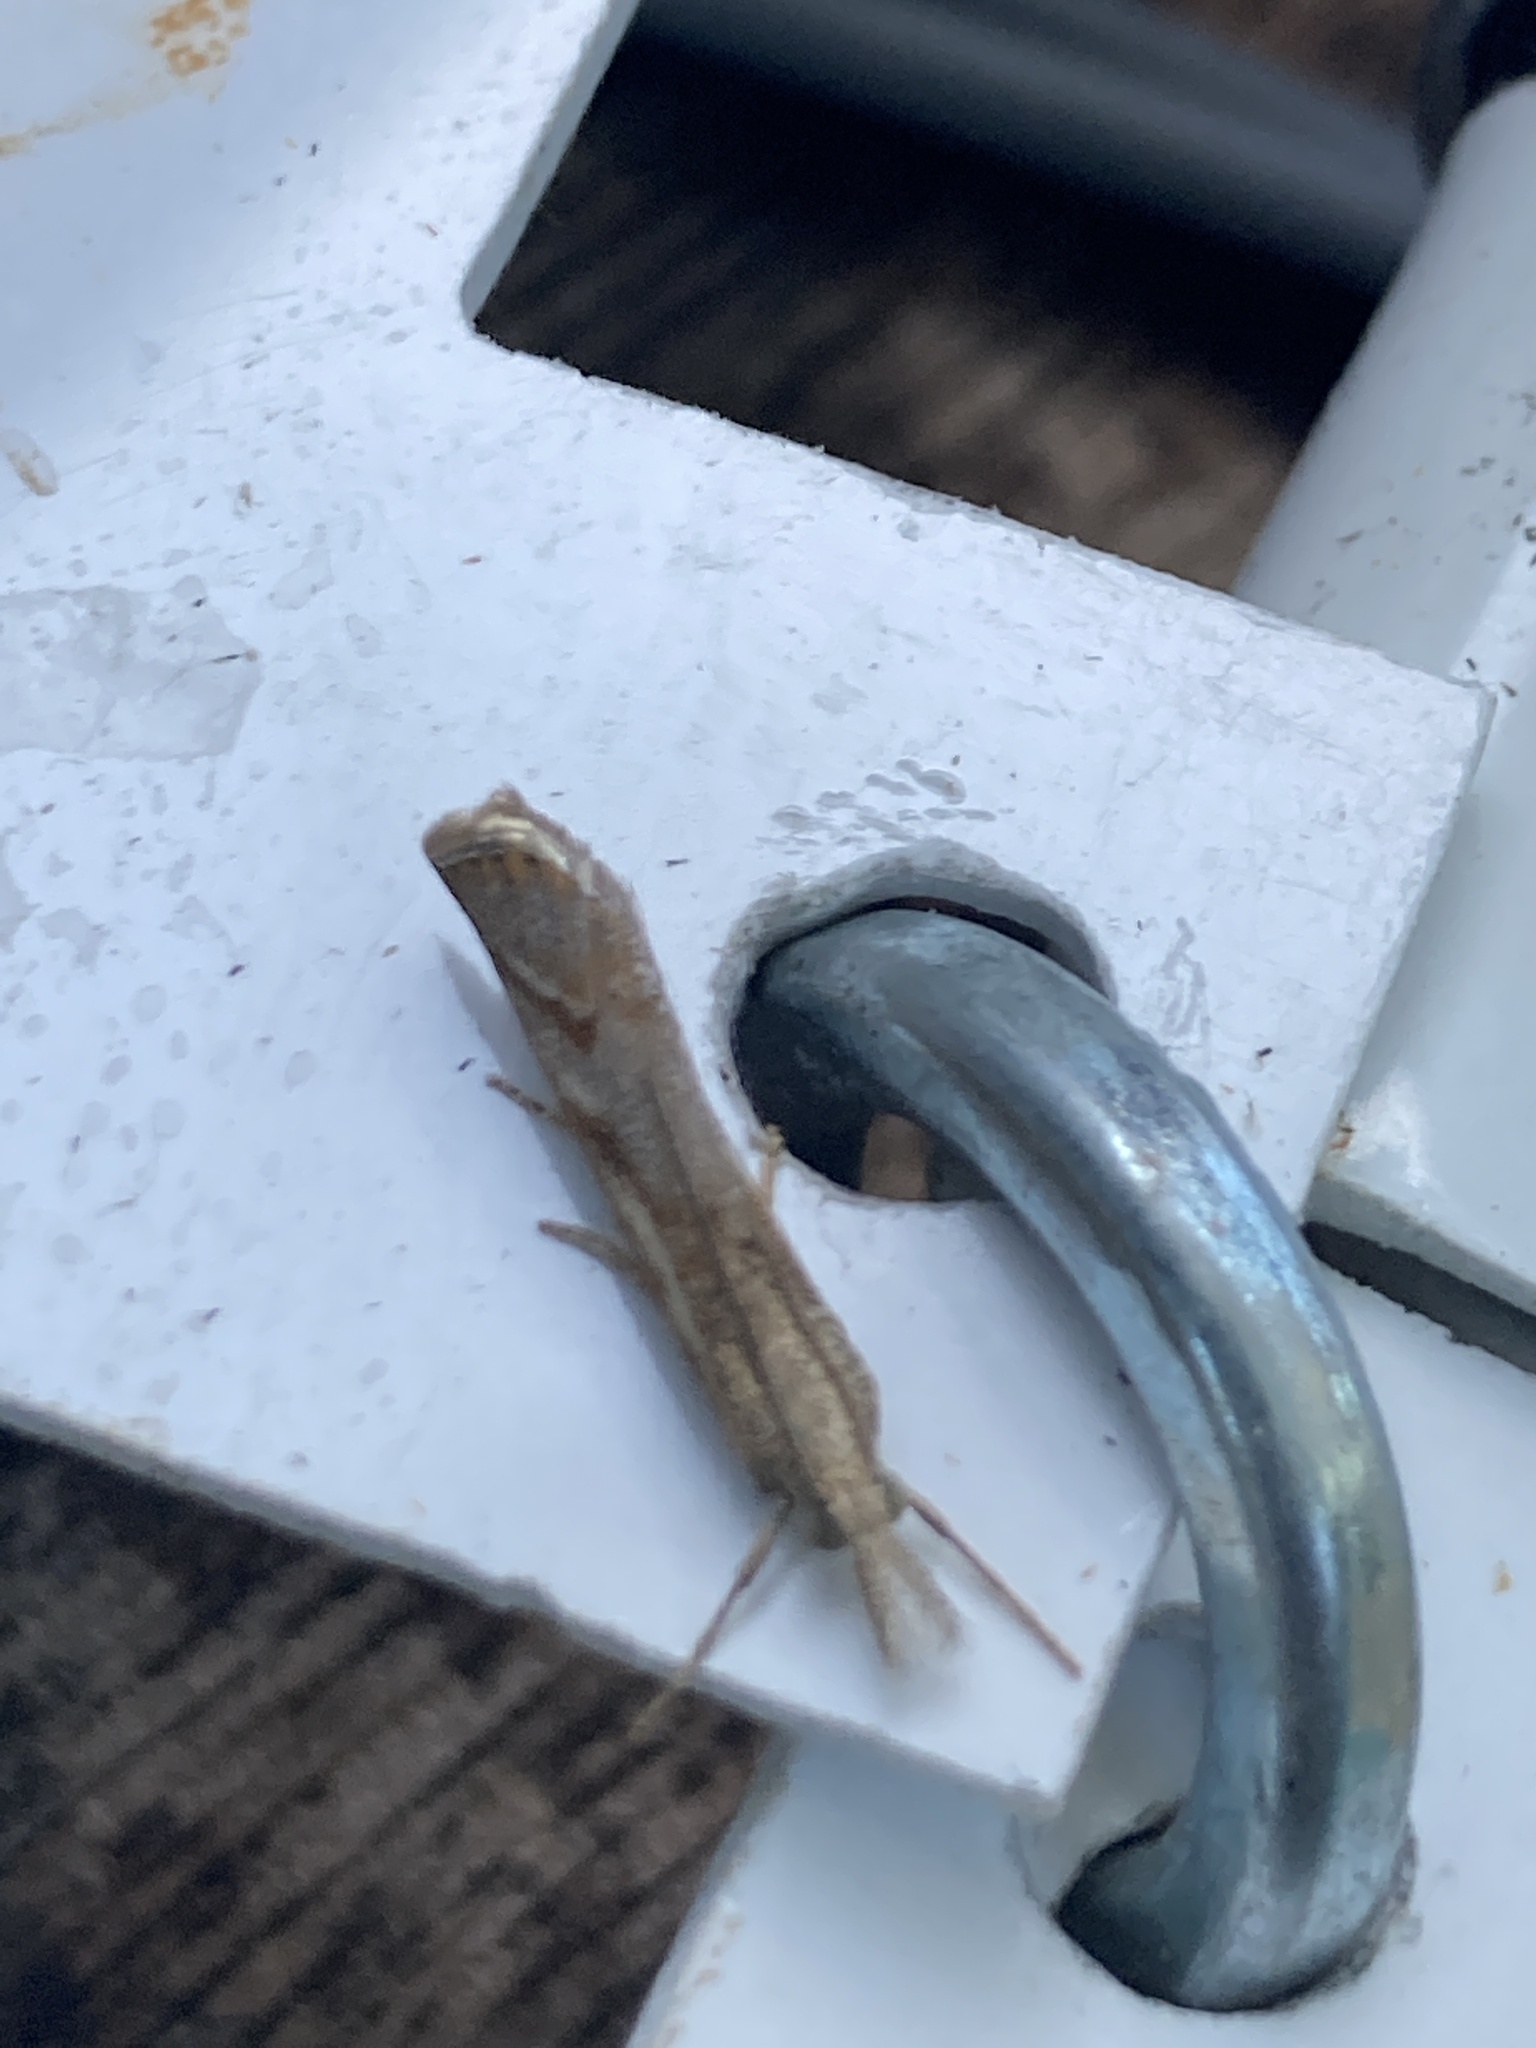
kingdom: Animalia
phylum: Arthropoda
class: Insecta
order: Lepidoptera
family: Crambidae
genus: Agriphila
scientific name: Agriphila geniculea
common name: Elbow-stripe grass-veneer
